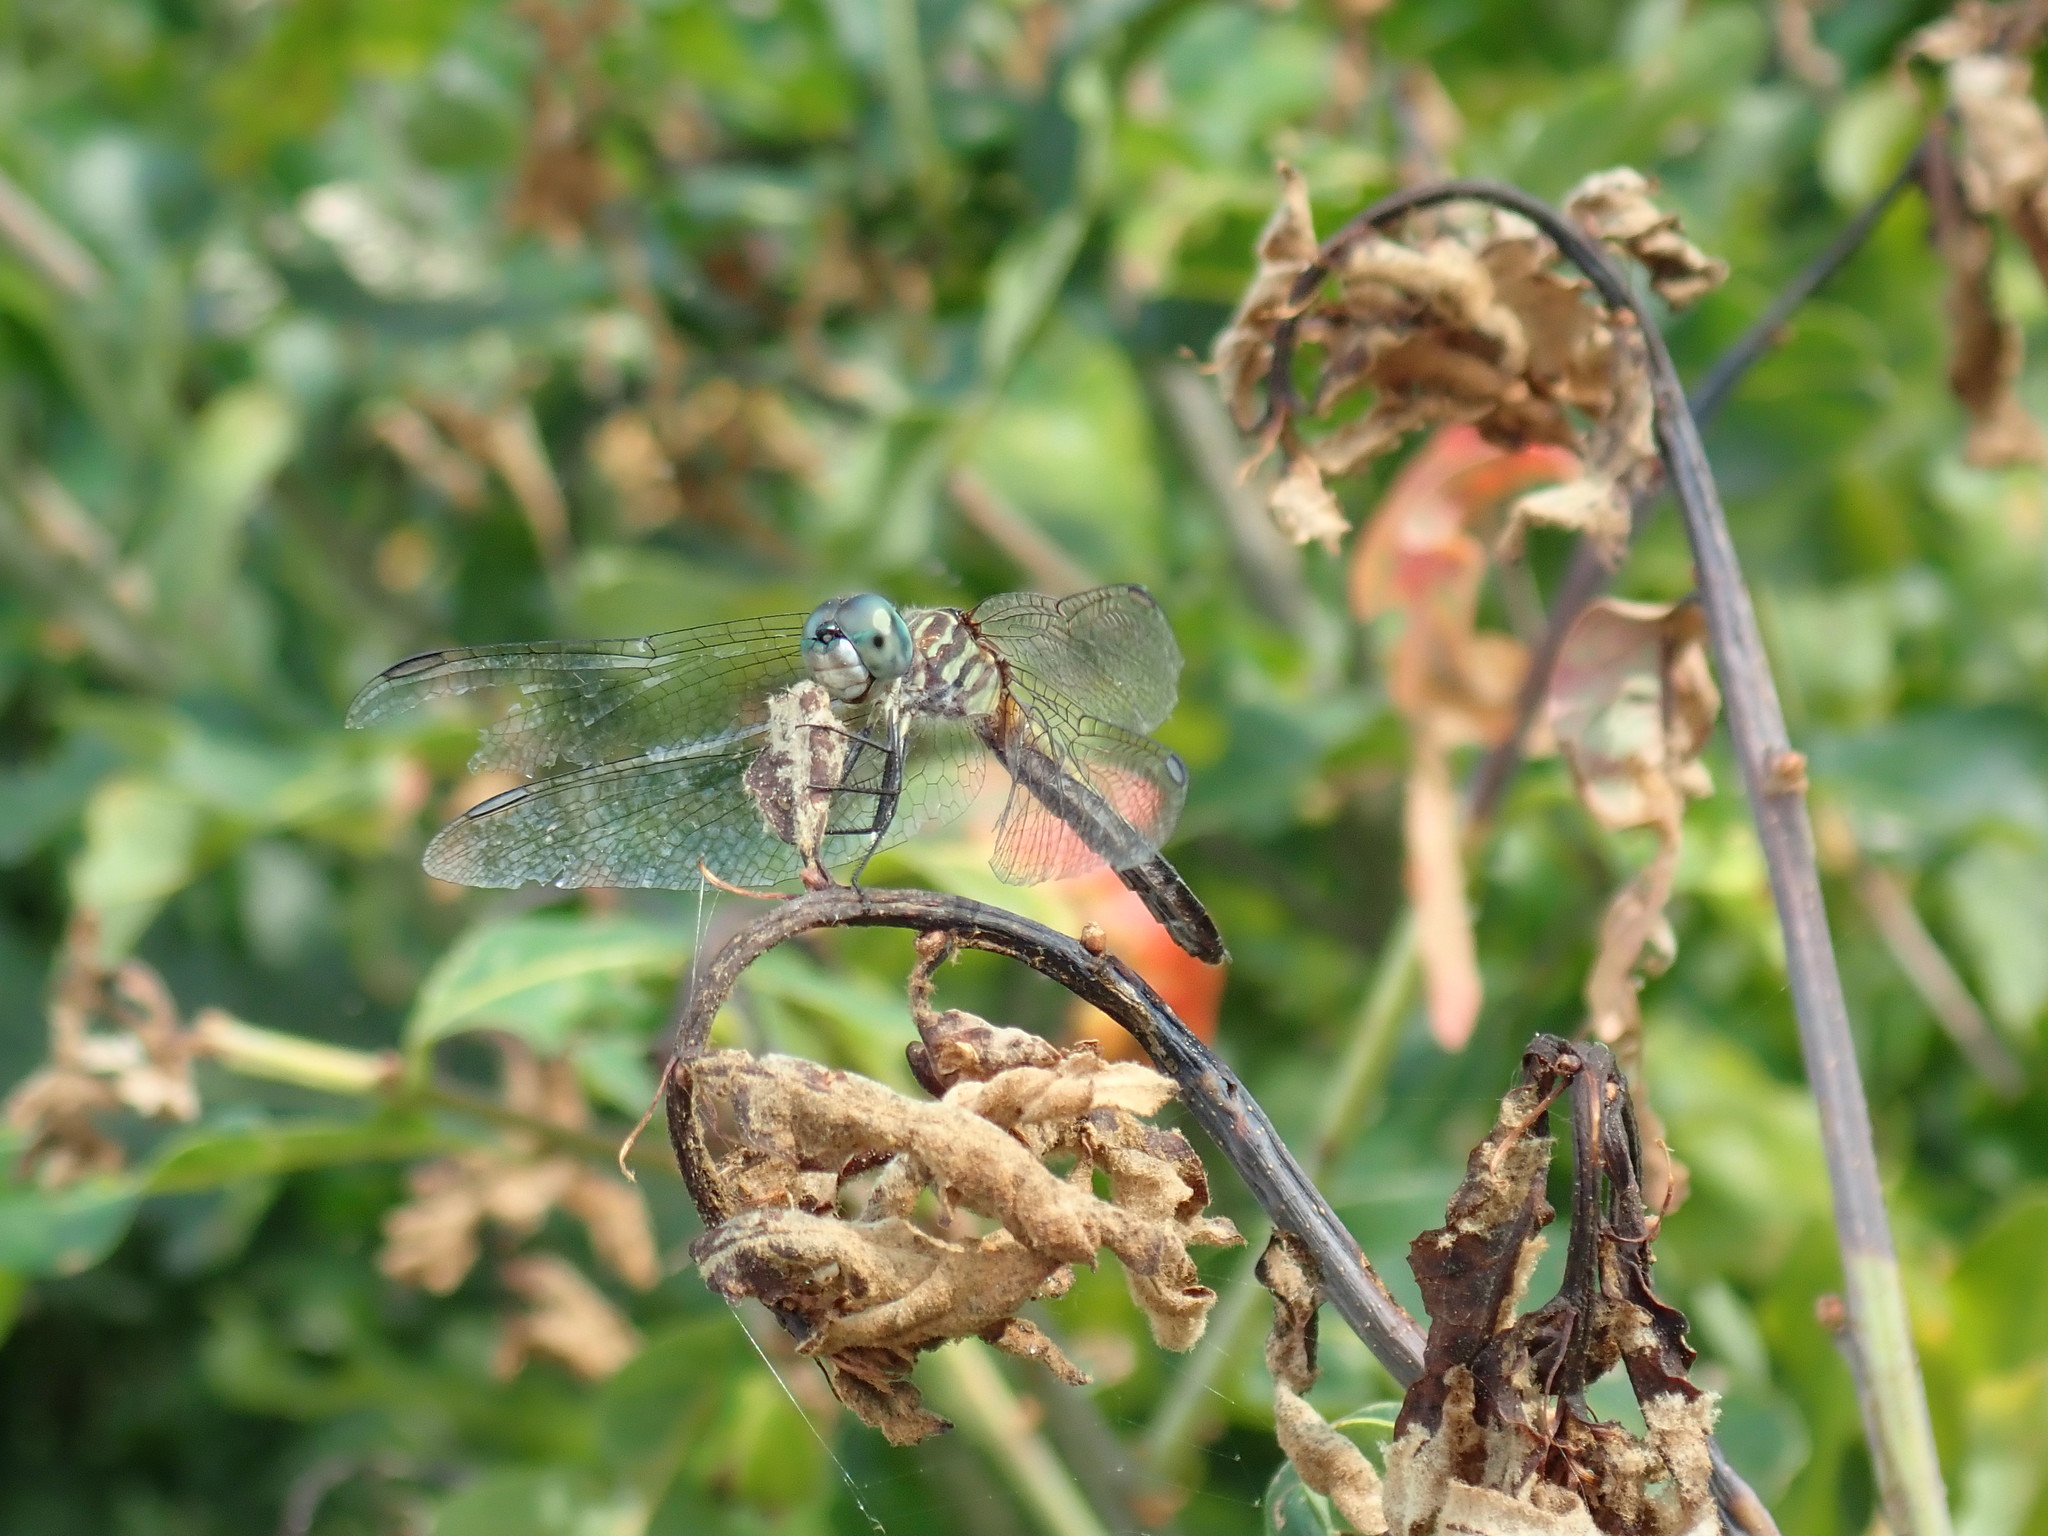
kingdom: Animalia
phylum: Arthropoda
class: Insecta
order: Odonata
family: Libellulidae
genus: Pachydiplax
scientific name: Pachydiplax longipennis
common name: Blue dasher
